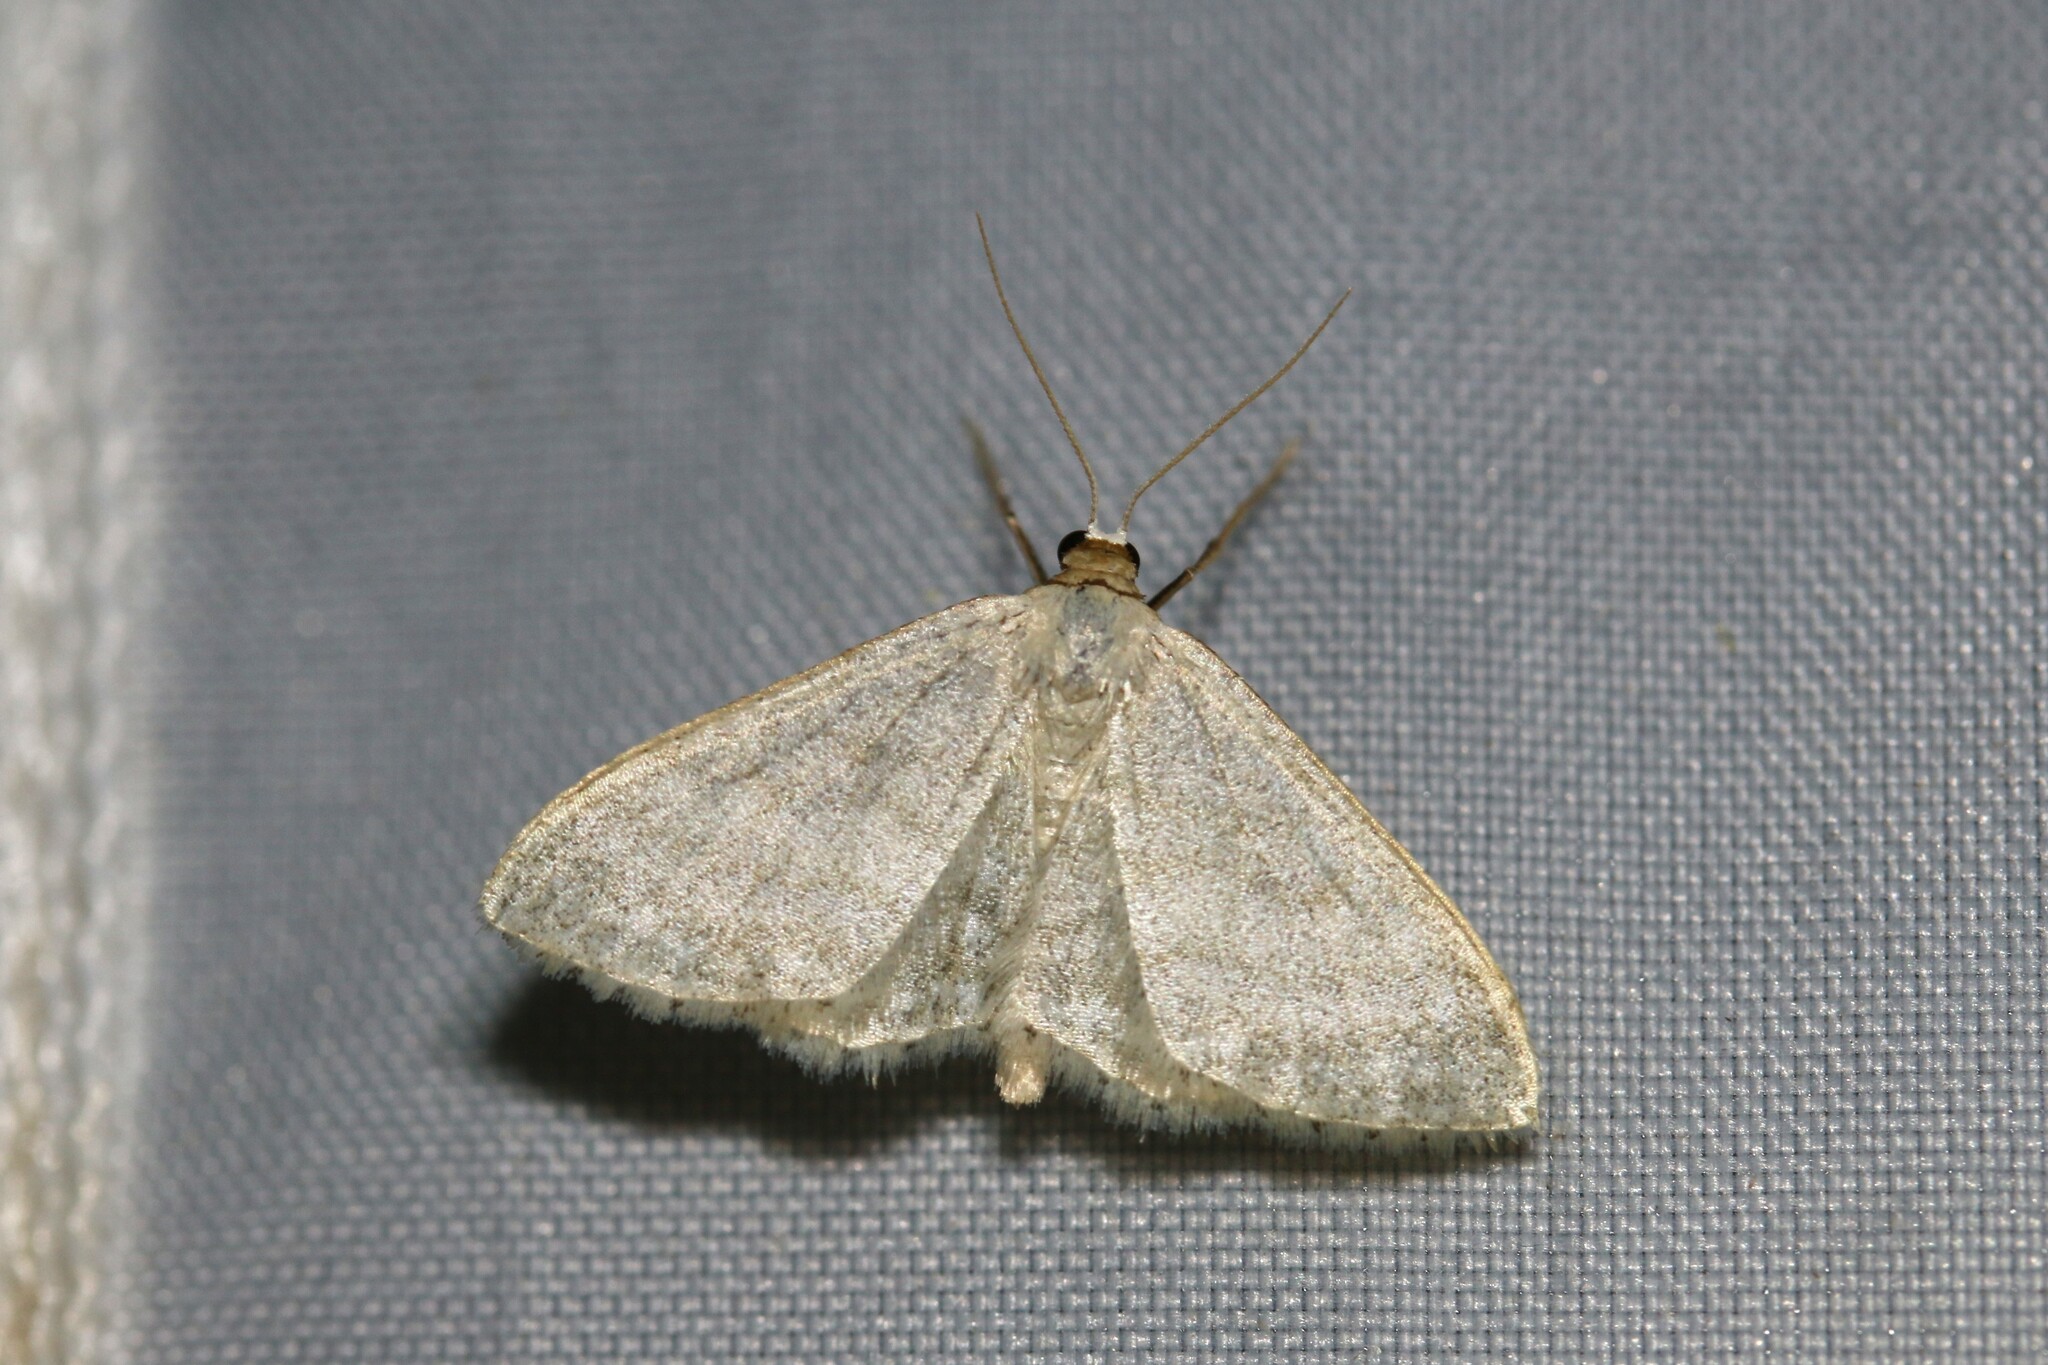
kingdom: Animalia
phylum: Arthropoda
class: Insecta
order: Lepidoptera
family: Geometridae
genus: Idaea
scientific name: Idaea subsericeata
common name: Satin wave
